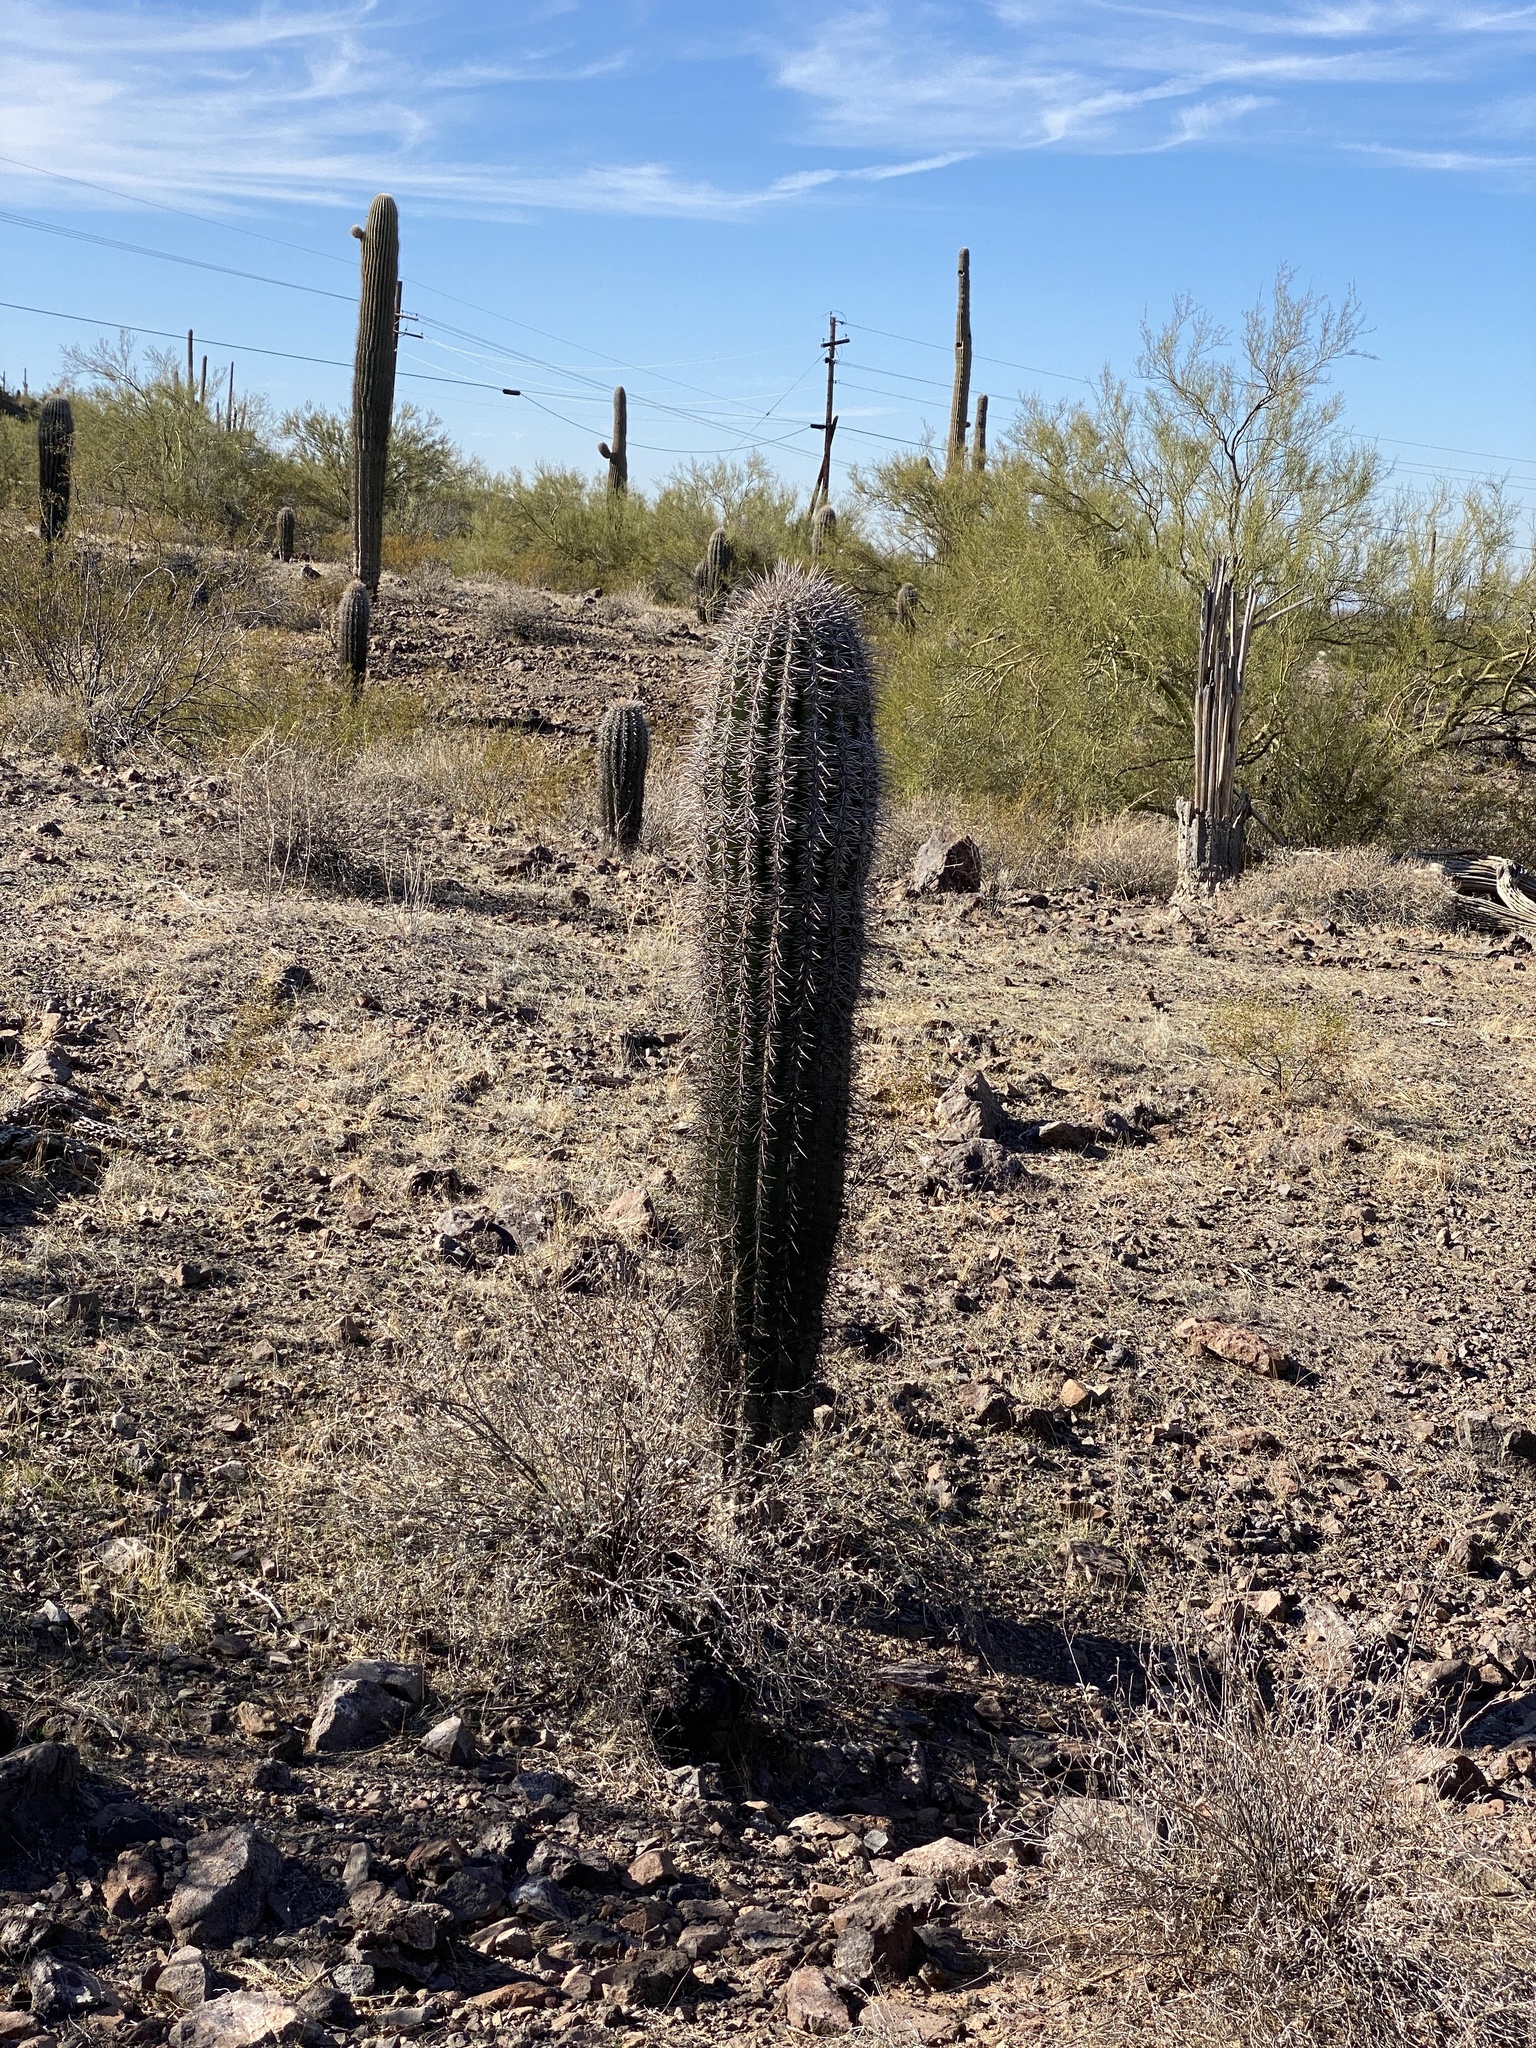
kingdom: Plantae
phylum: Tracheophyta
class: Magnoliopsida
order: Caryophyllales
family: Cactaceae
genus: Carnegiea
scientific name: Carnegiea gigantea
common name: Saguaro
